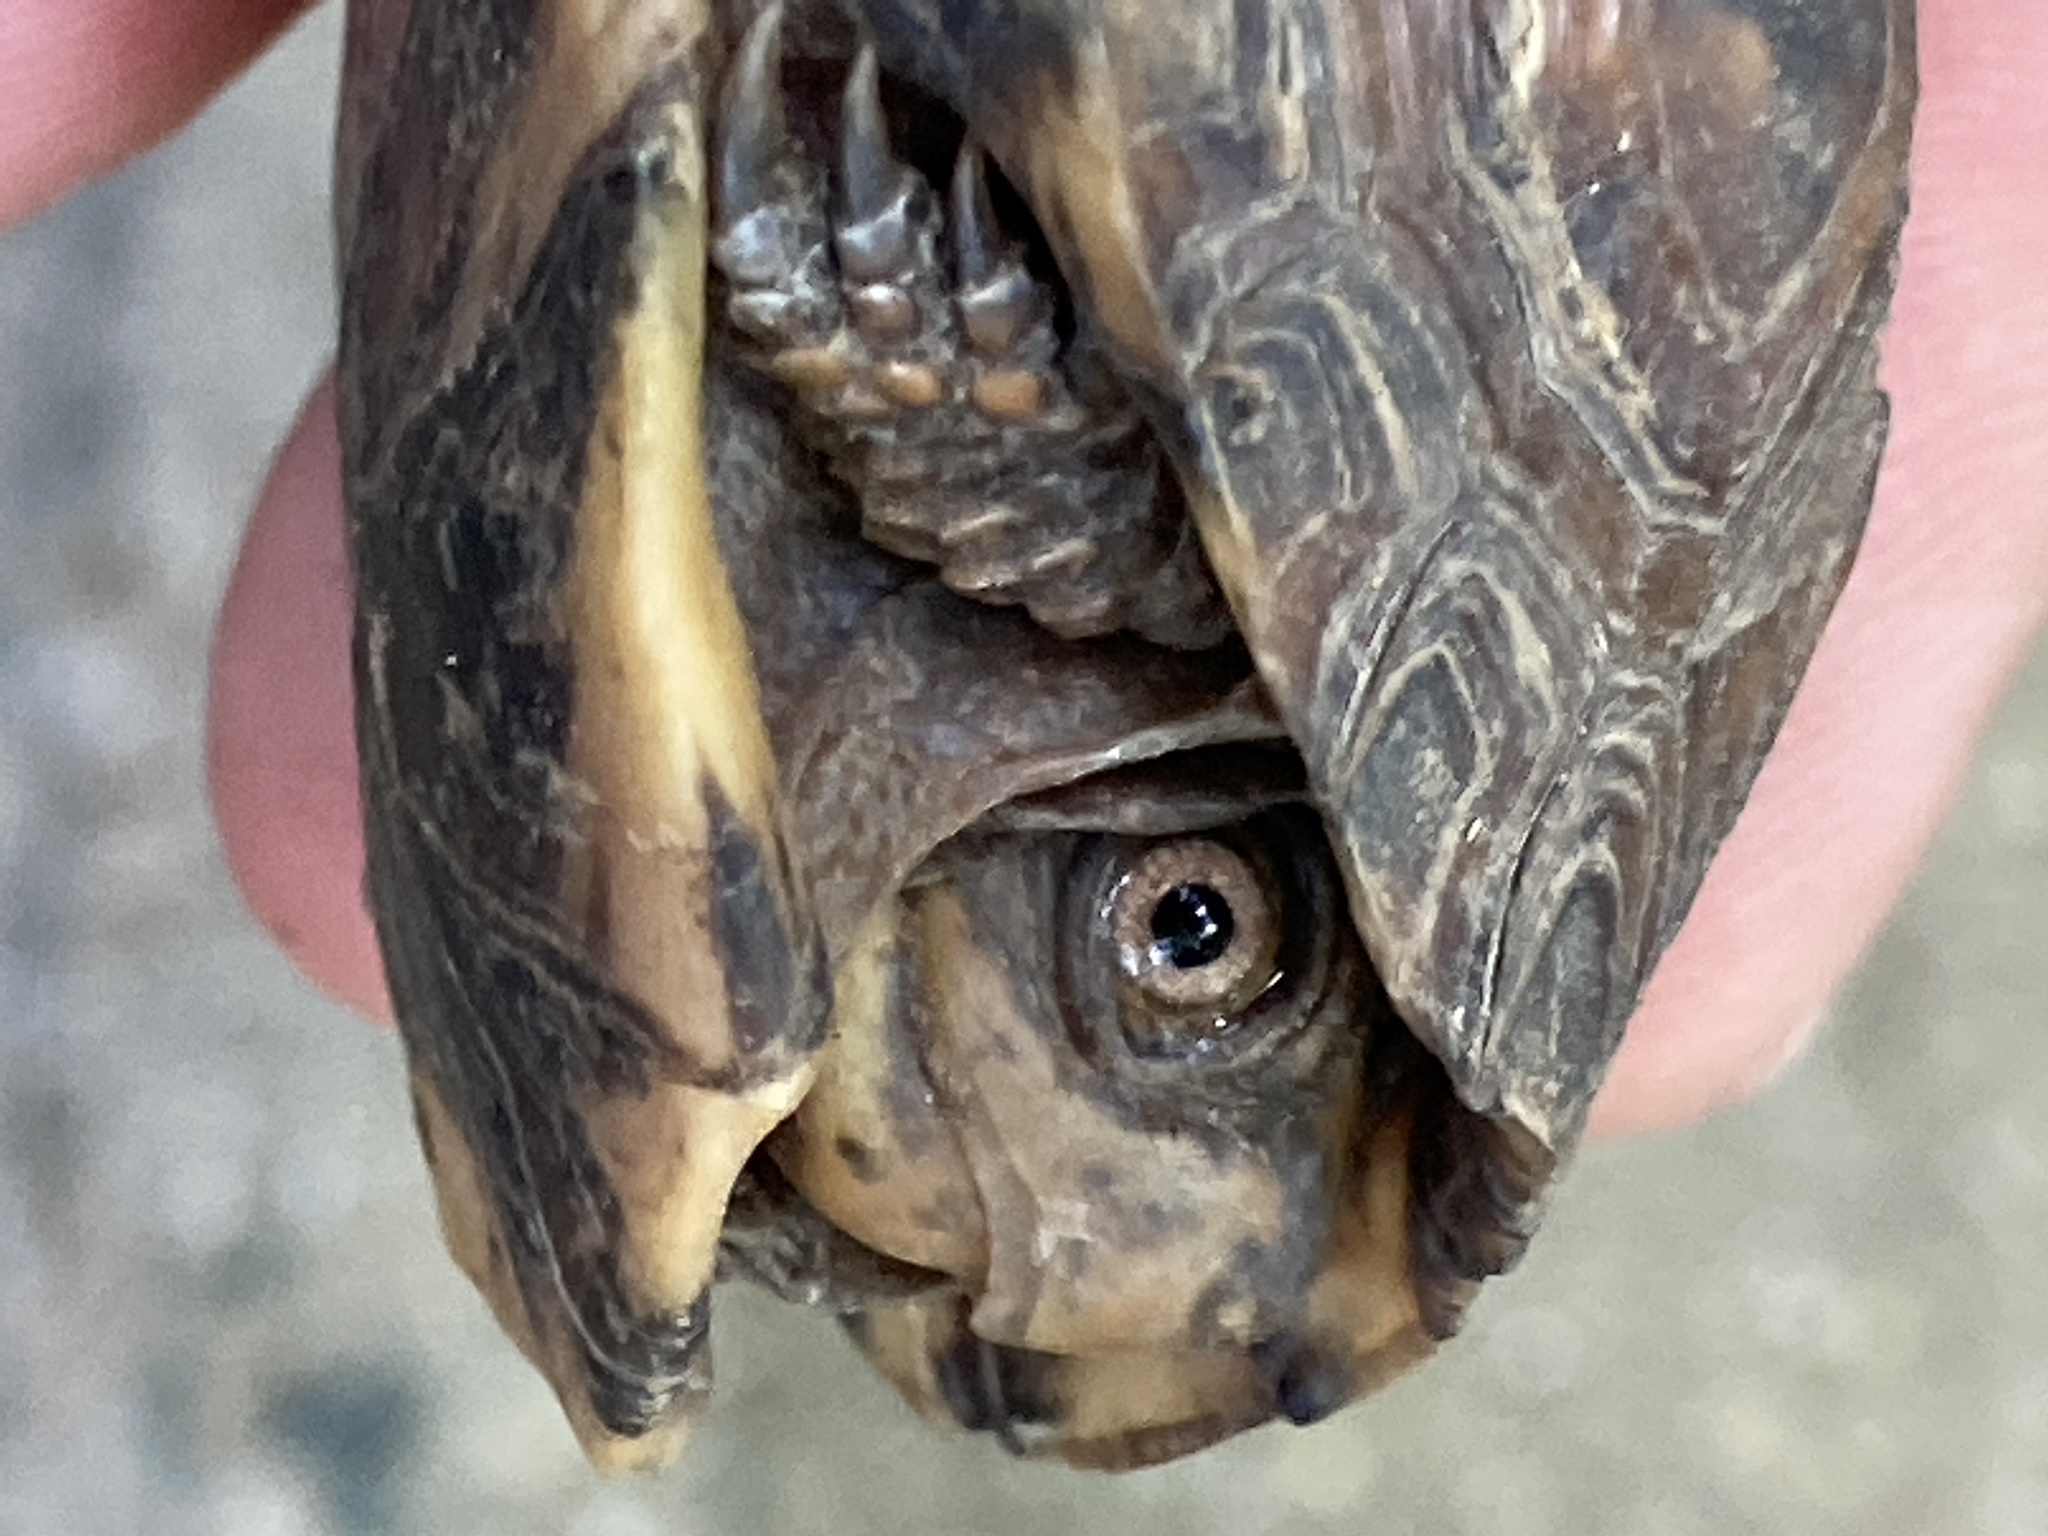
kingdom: Animalia
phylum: Chordata
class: Testudines
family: Emydidae
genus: Terrapene
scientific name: Terrapene carolina
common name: Common box turtle
